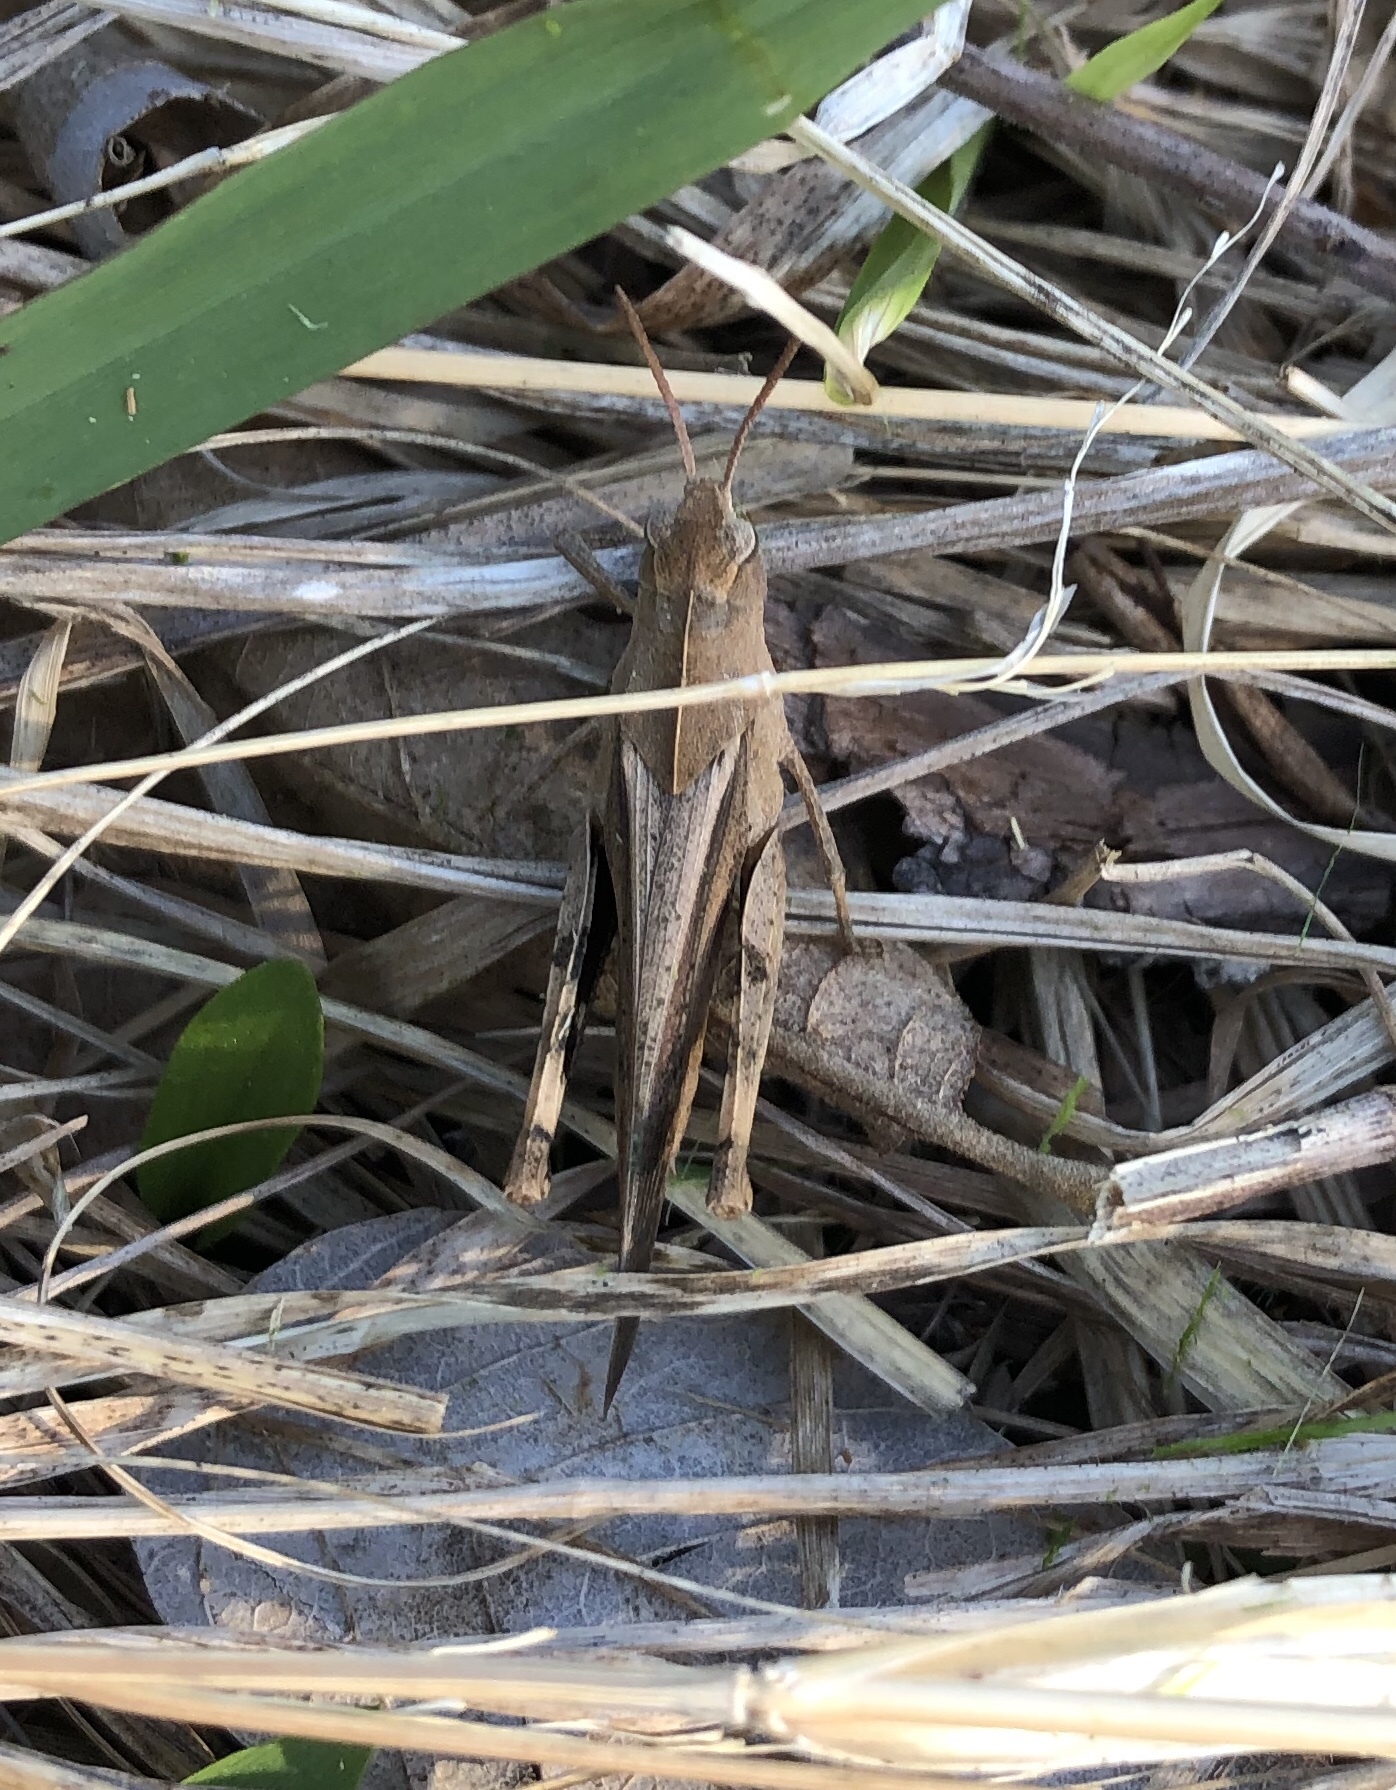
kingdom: Animalia
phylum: Arthropoda
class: Insecta
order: Orthoptera
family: Acrididae
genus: Chortophaga
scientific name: Chortophaga viridifasciata
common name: Green-striped grasshopper
